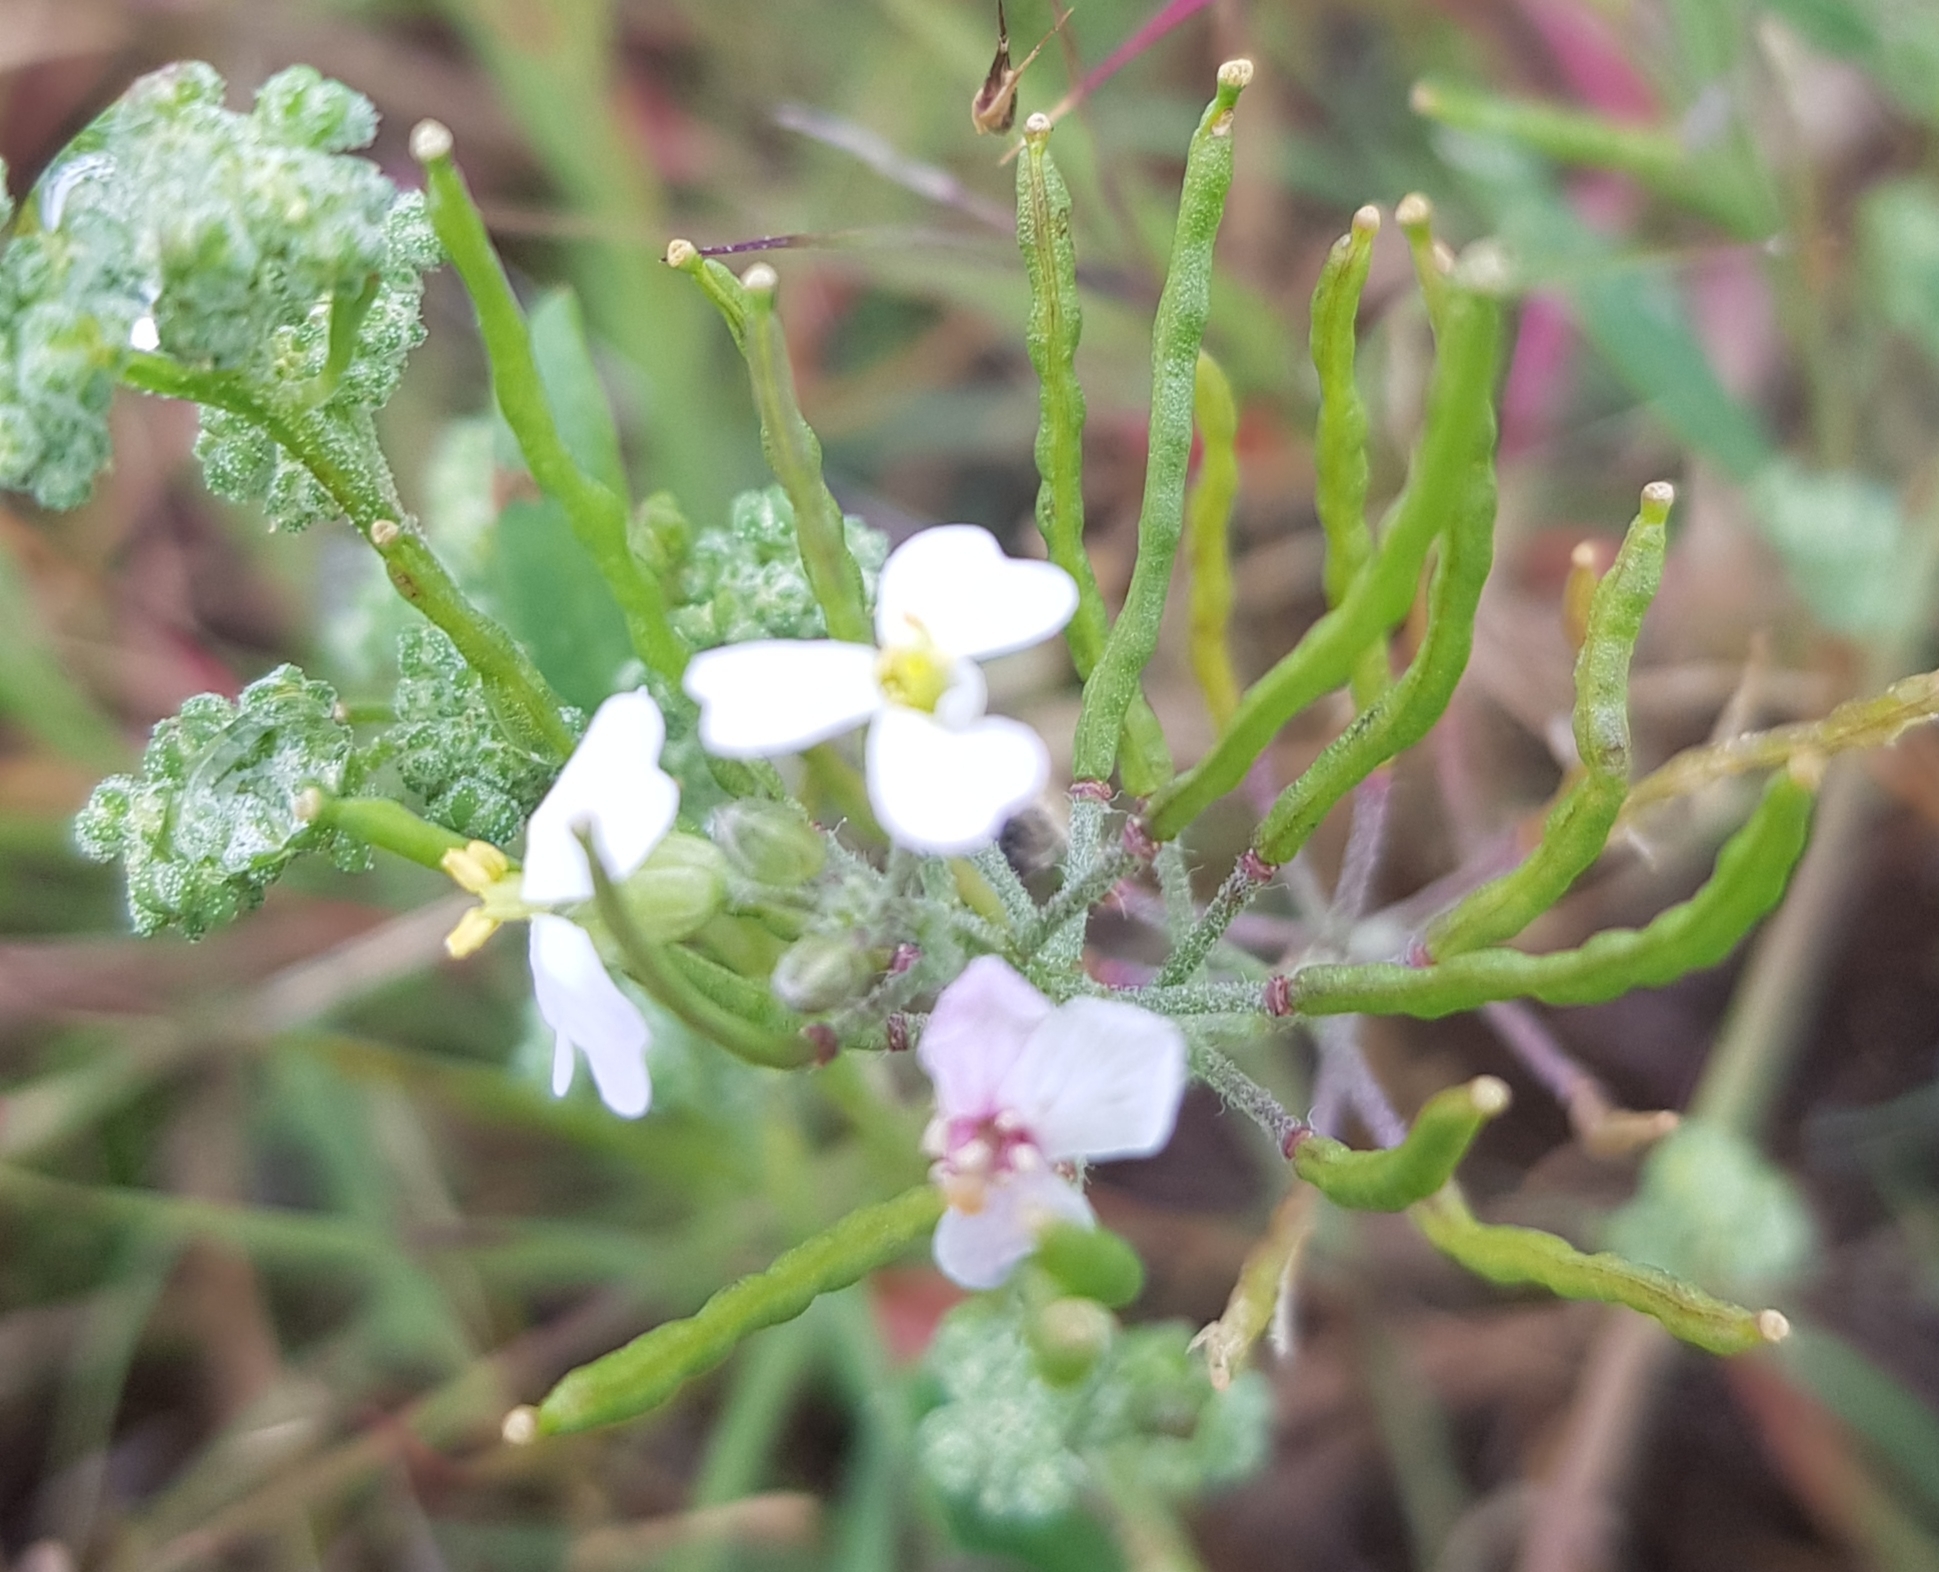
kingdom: Plantae
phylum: Tracheophyta
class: Magnoliopsida
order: Brassicales
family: Brassicaceae
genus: Dontostemon
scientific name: Dontostemon integrifolius
